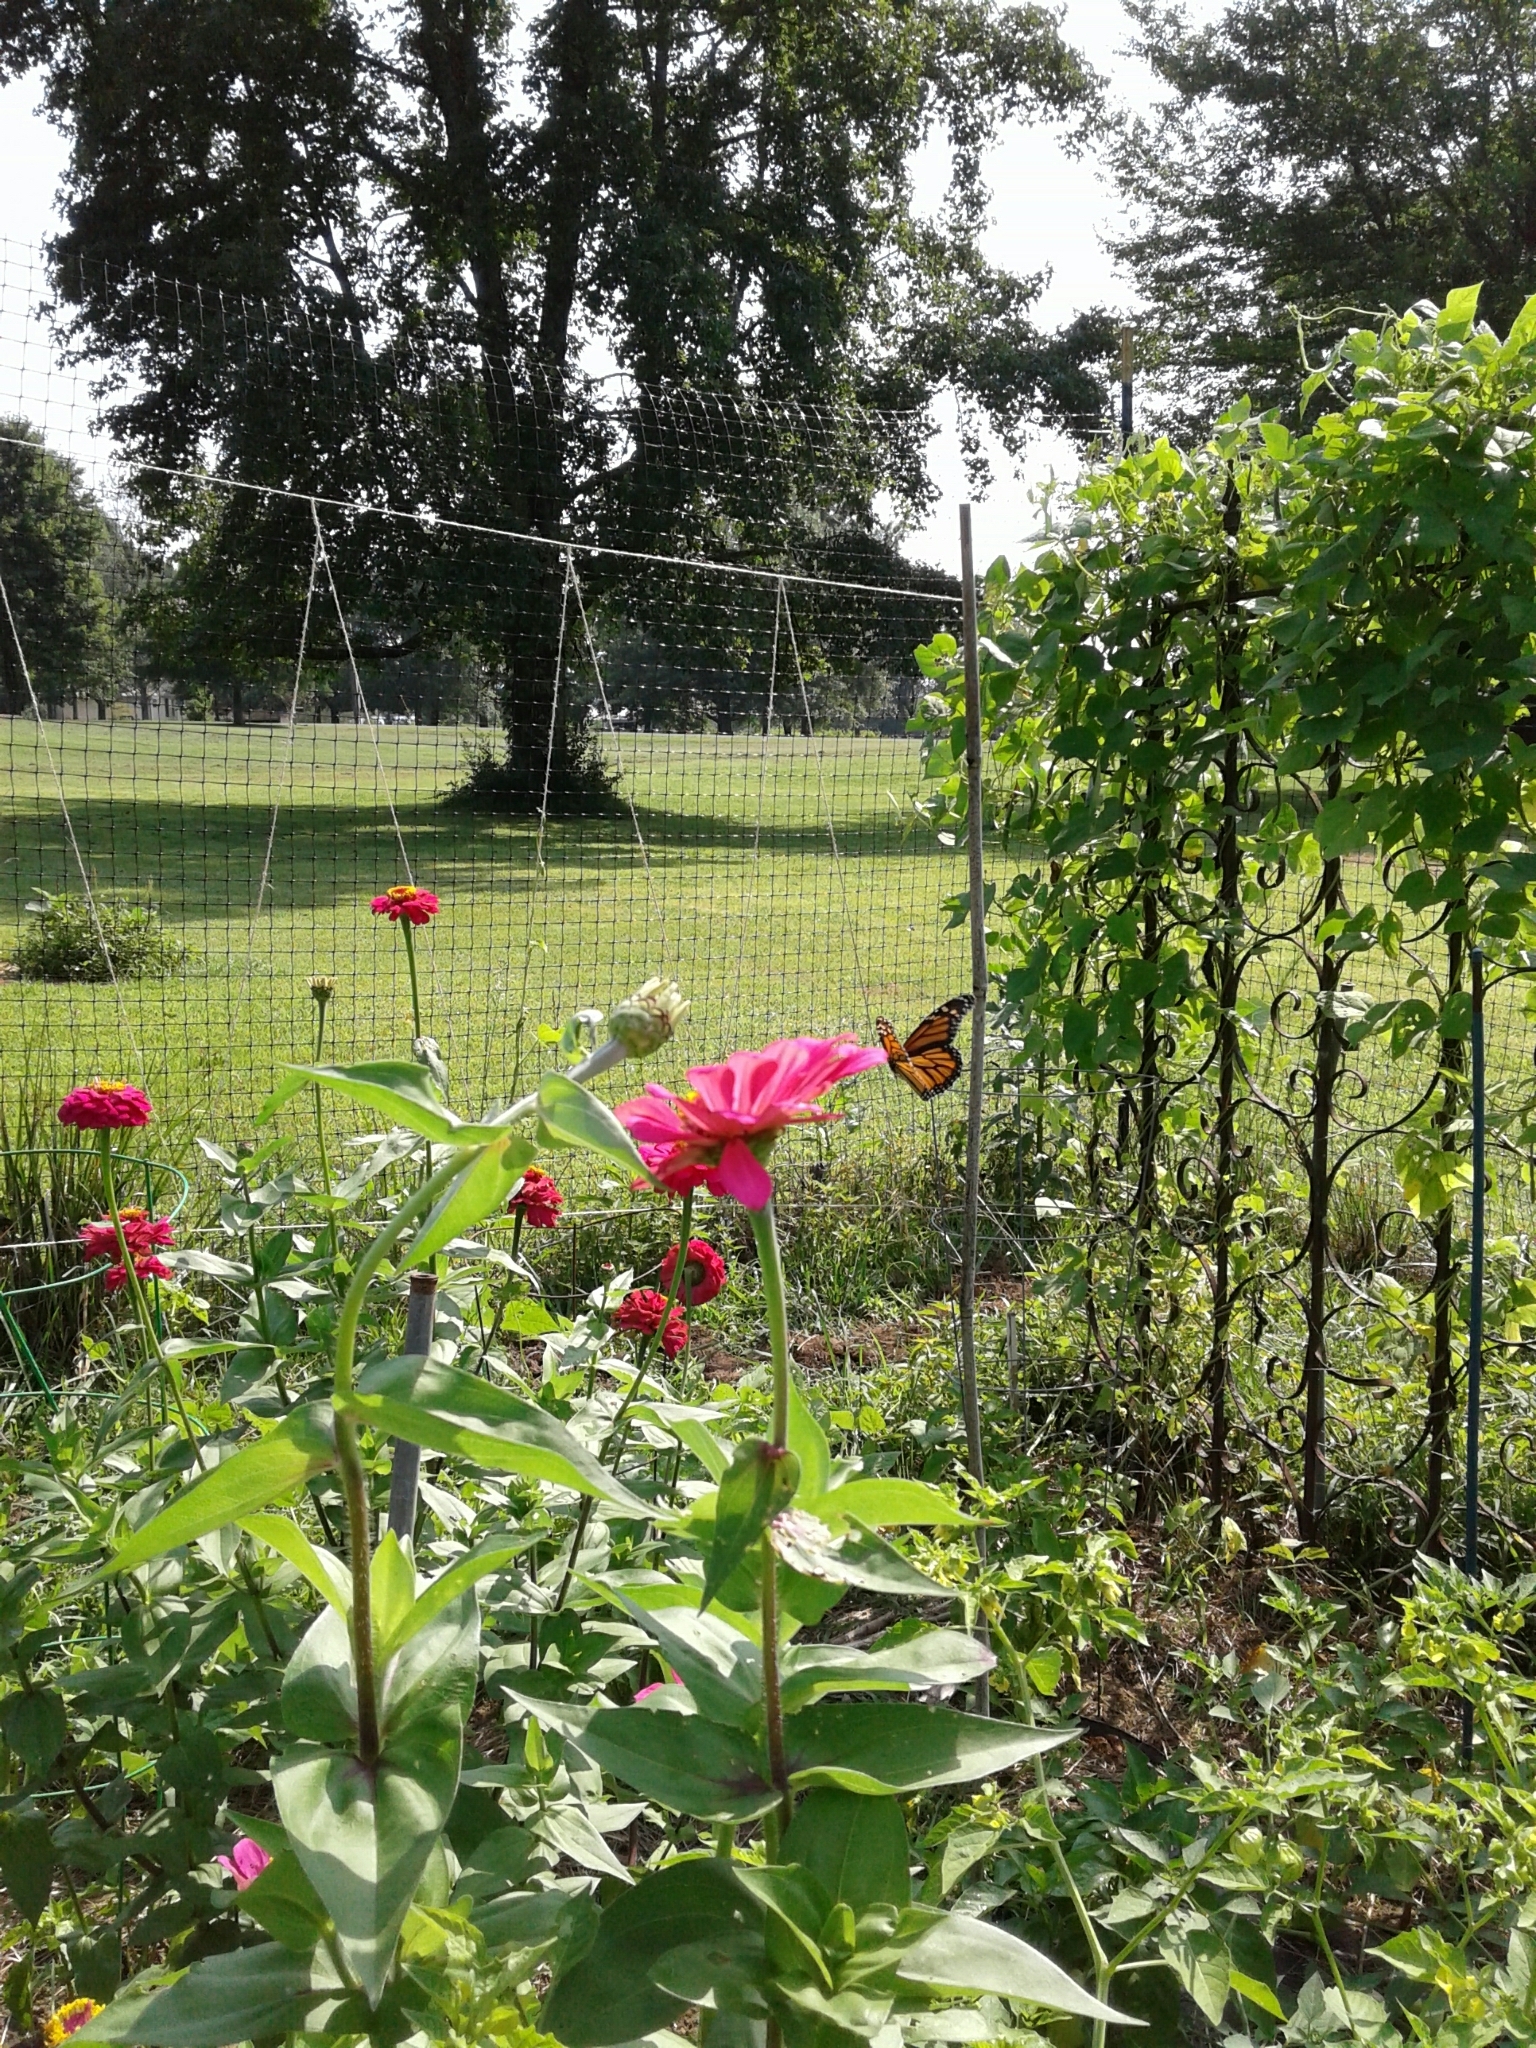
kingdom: Animalia
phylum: Arthropoda
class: Insecta
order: Lepidoptera
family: Nymphalidae
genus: Danaus
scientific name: Danaus plexippus
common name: Monarch
